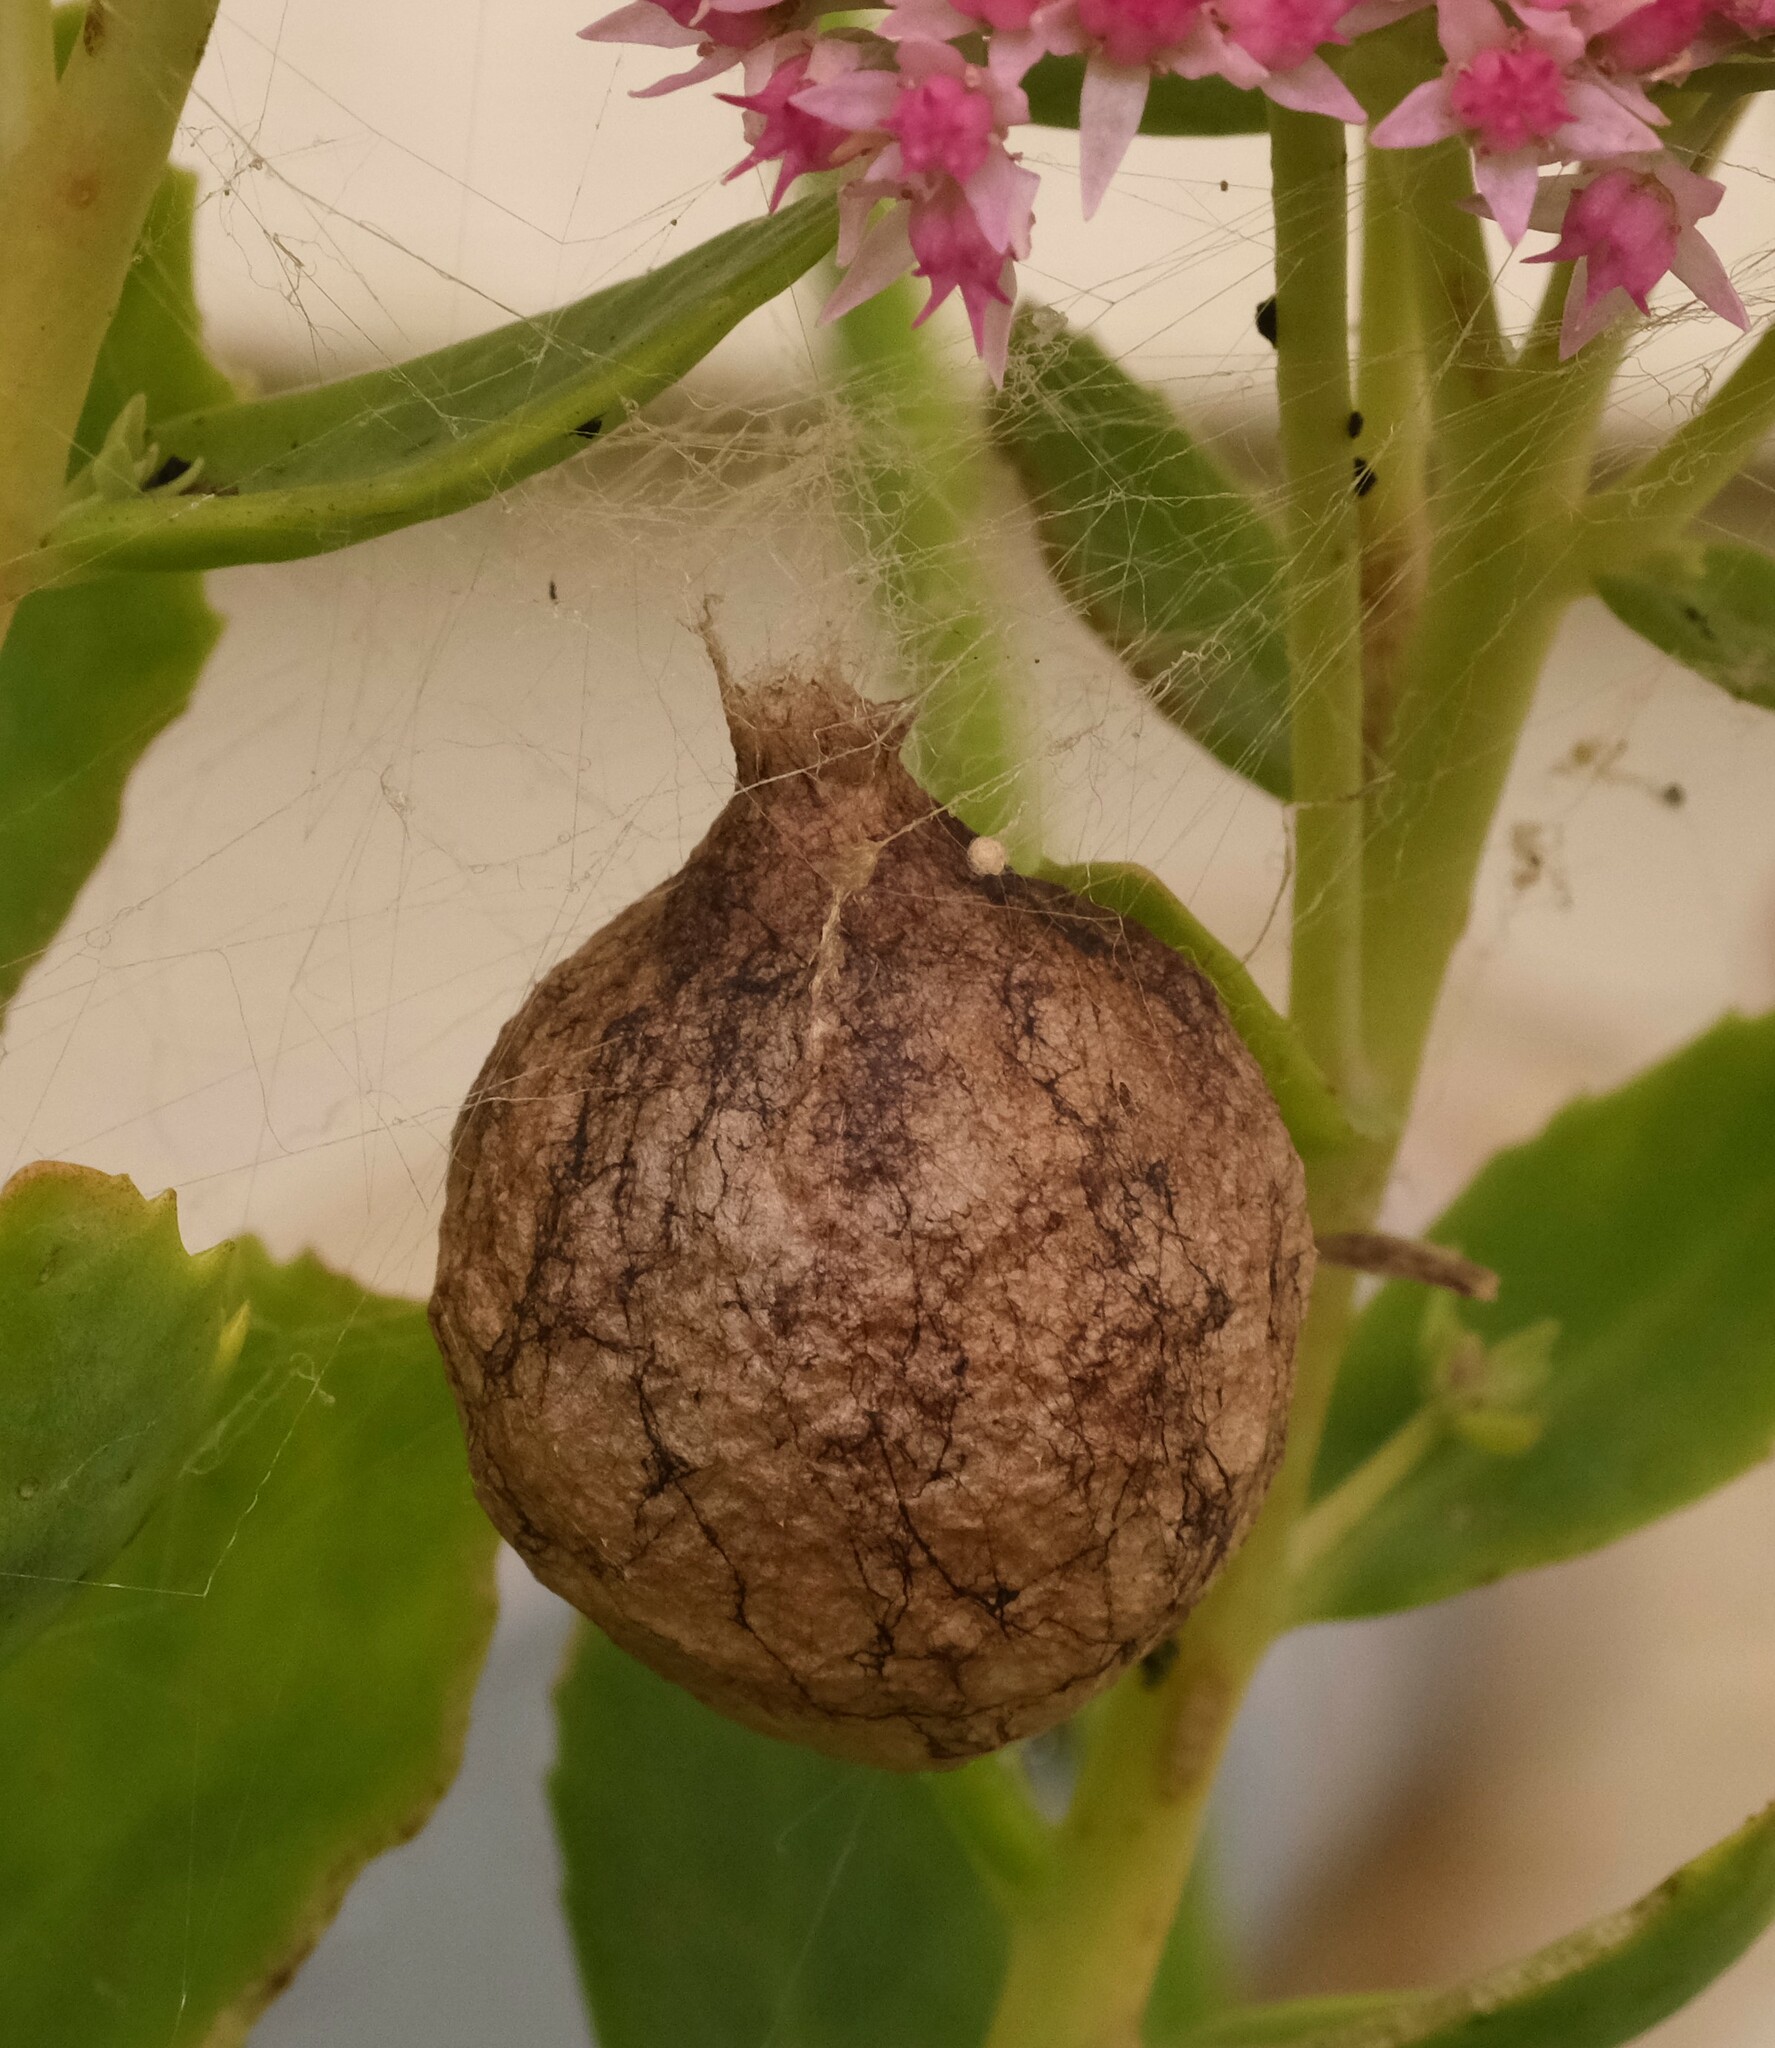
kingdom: Animalia
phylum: Arthropoda
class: Arachnida
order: Araneae
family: Araneidae
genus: Argiope
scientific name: Argiope aurantia
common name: Orb weavers
